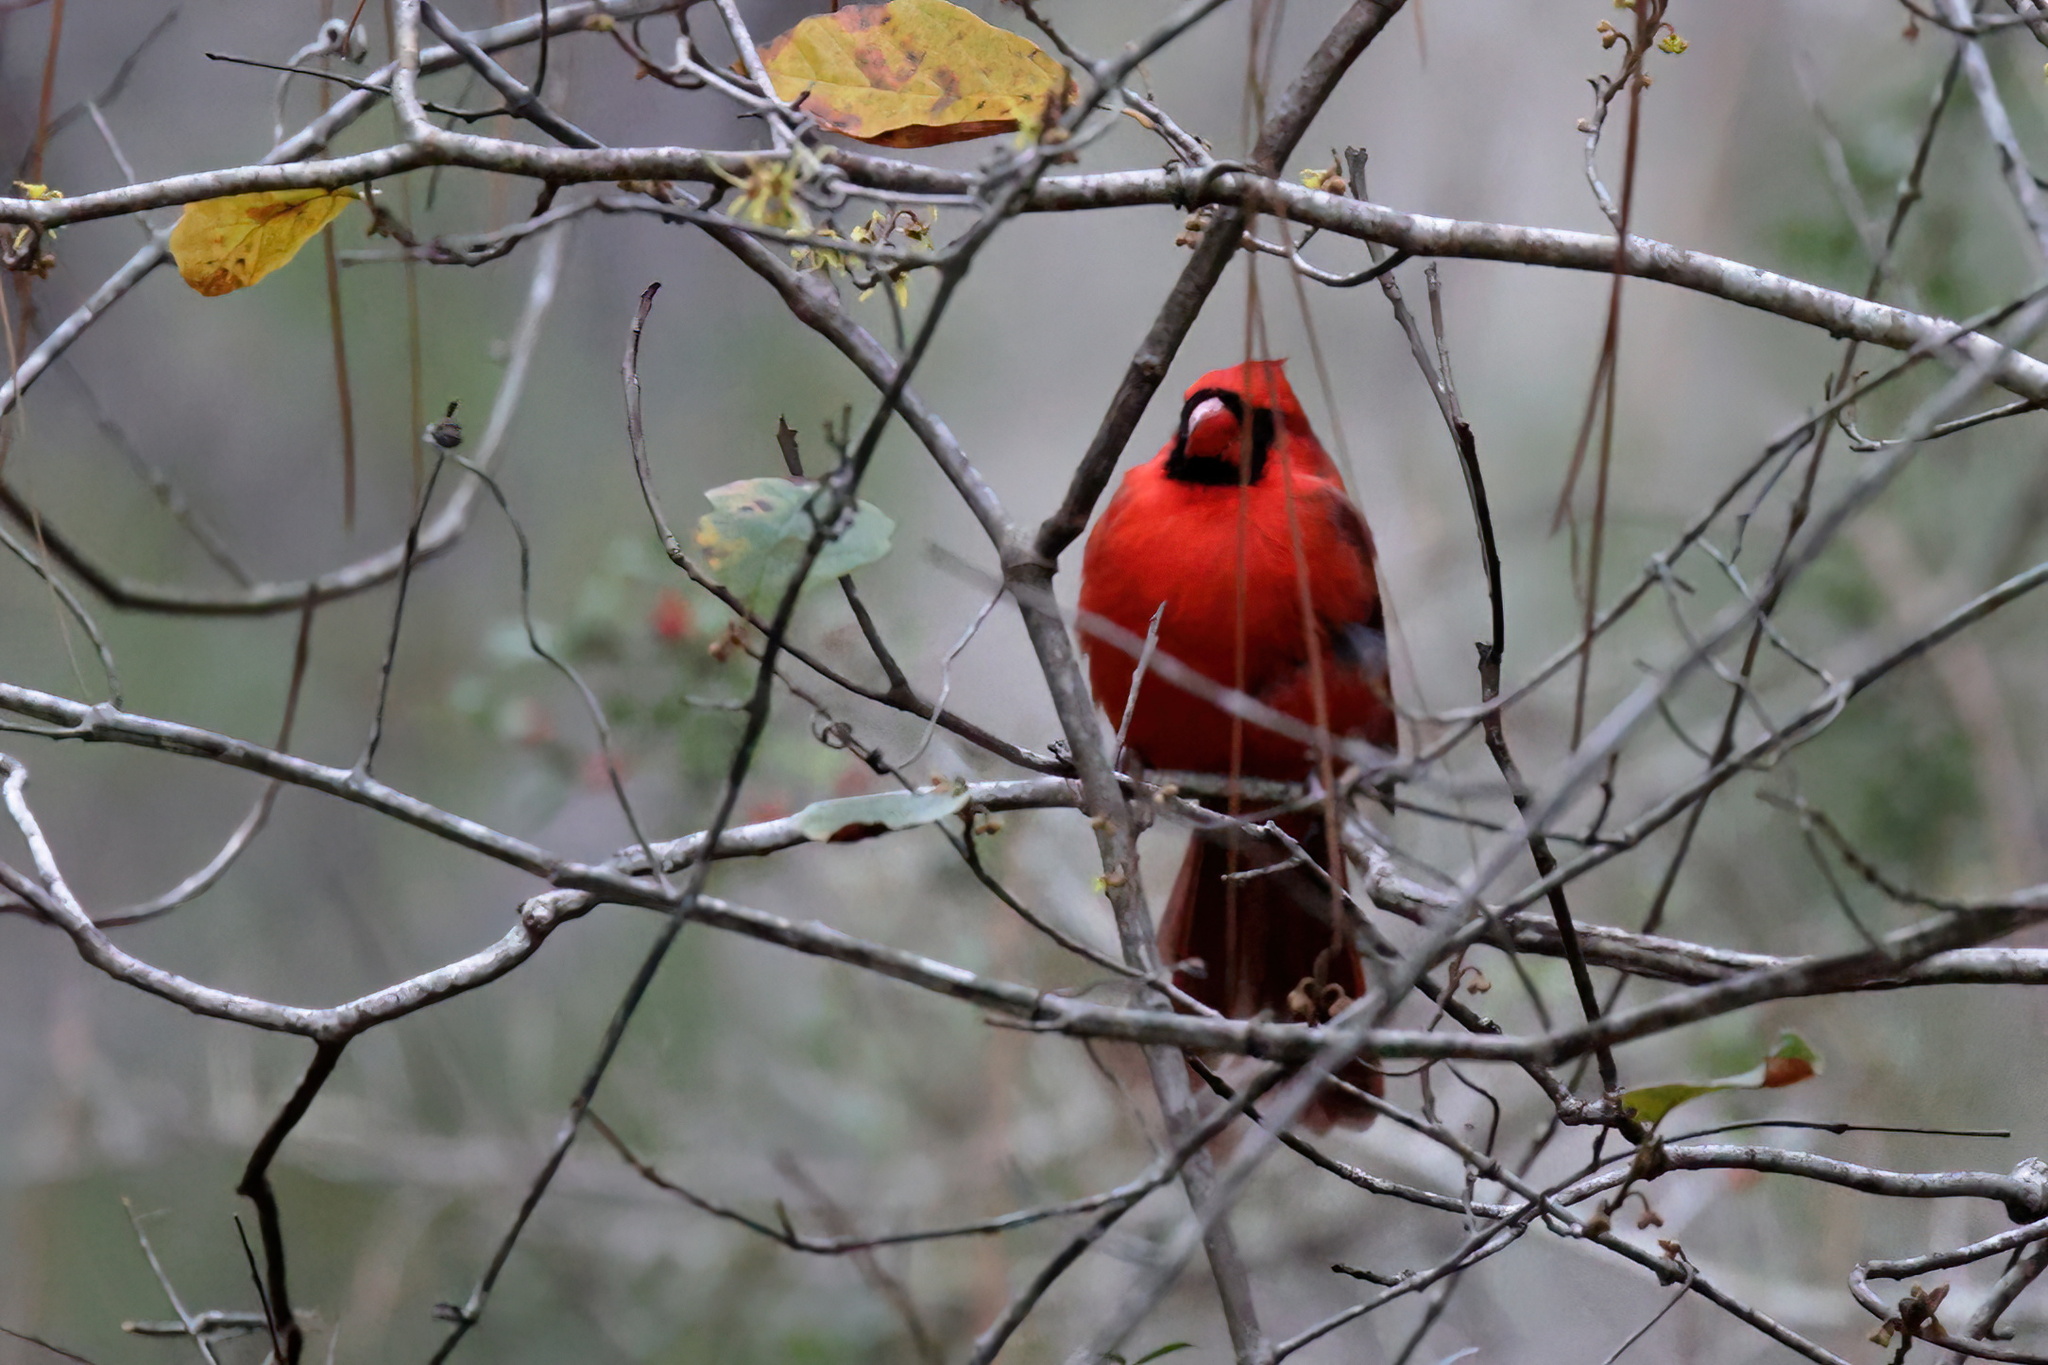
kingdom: Animalia
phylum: Chordata
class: Aves
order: Passeriformes
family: Cardinalidae
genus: Cardinalis
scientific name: Cardinalis cardinalis
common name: Northern cardinal
